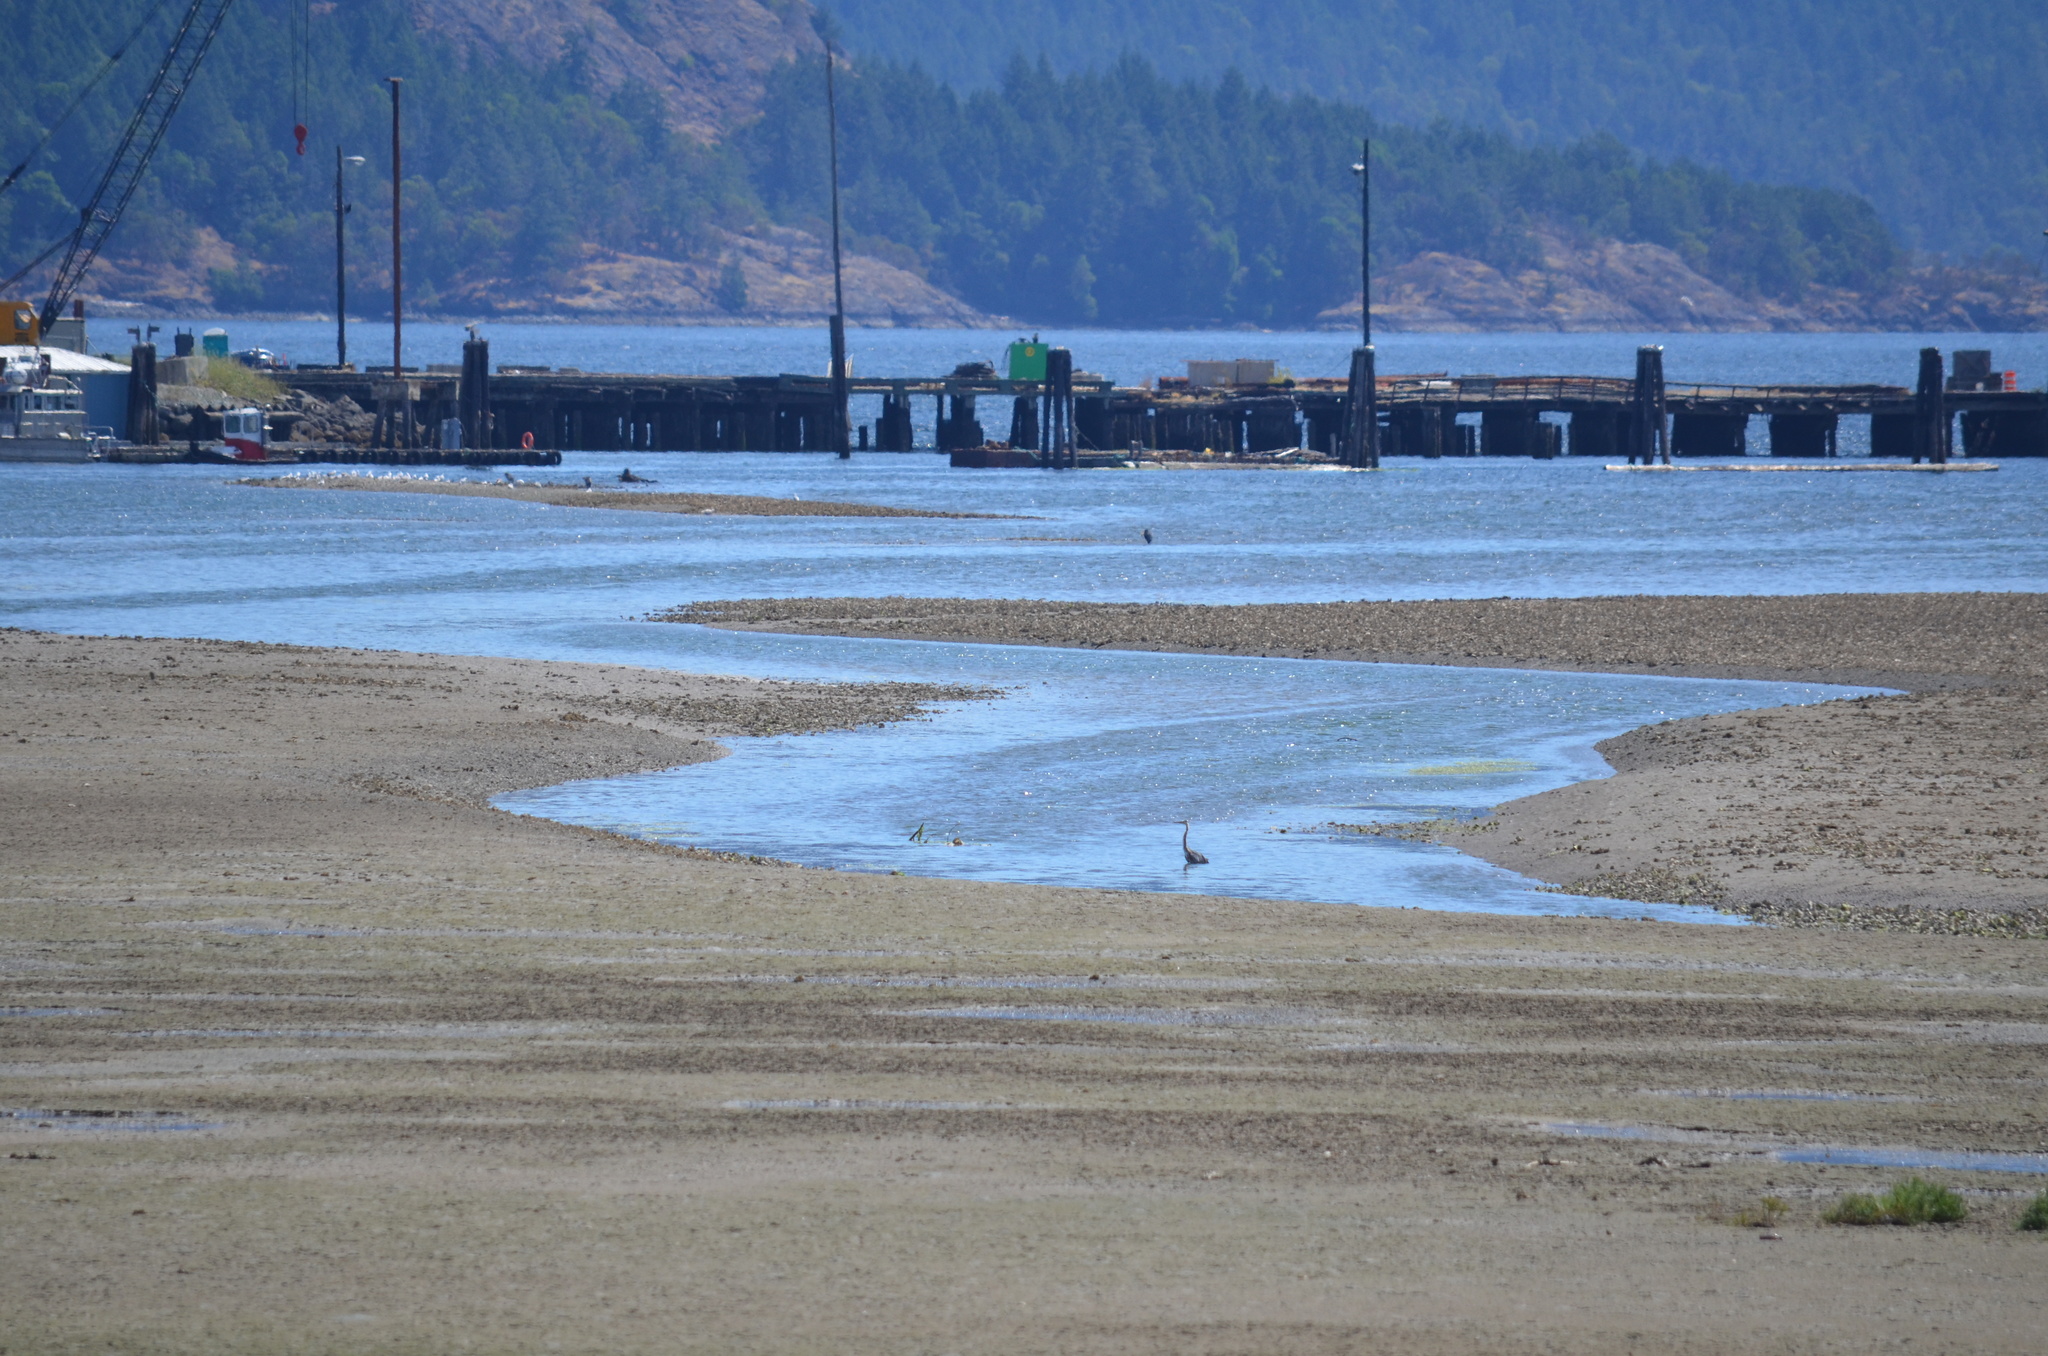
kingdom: Animalia
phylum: Chordata
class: Aves
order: Pelecaniformes
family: Ardeidae
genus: Ardea
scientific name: Ardea herodias
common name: Great blue heron
